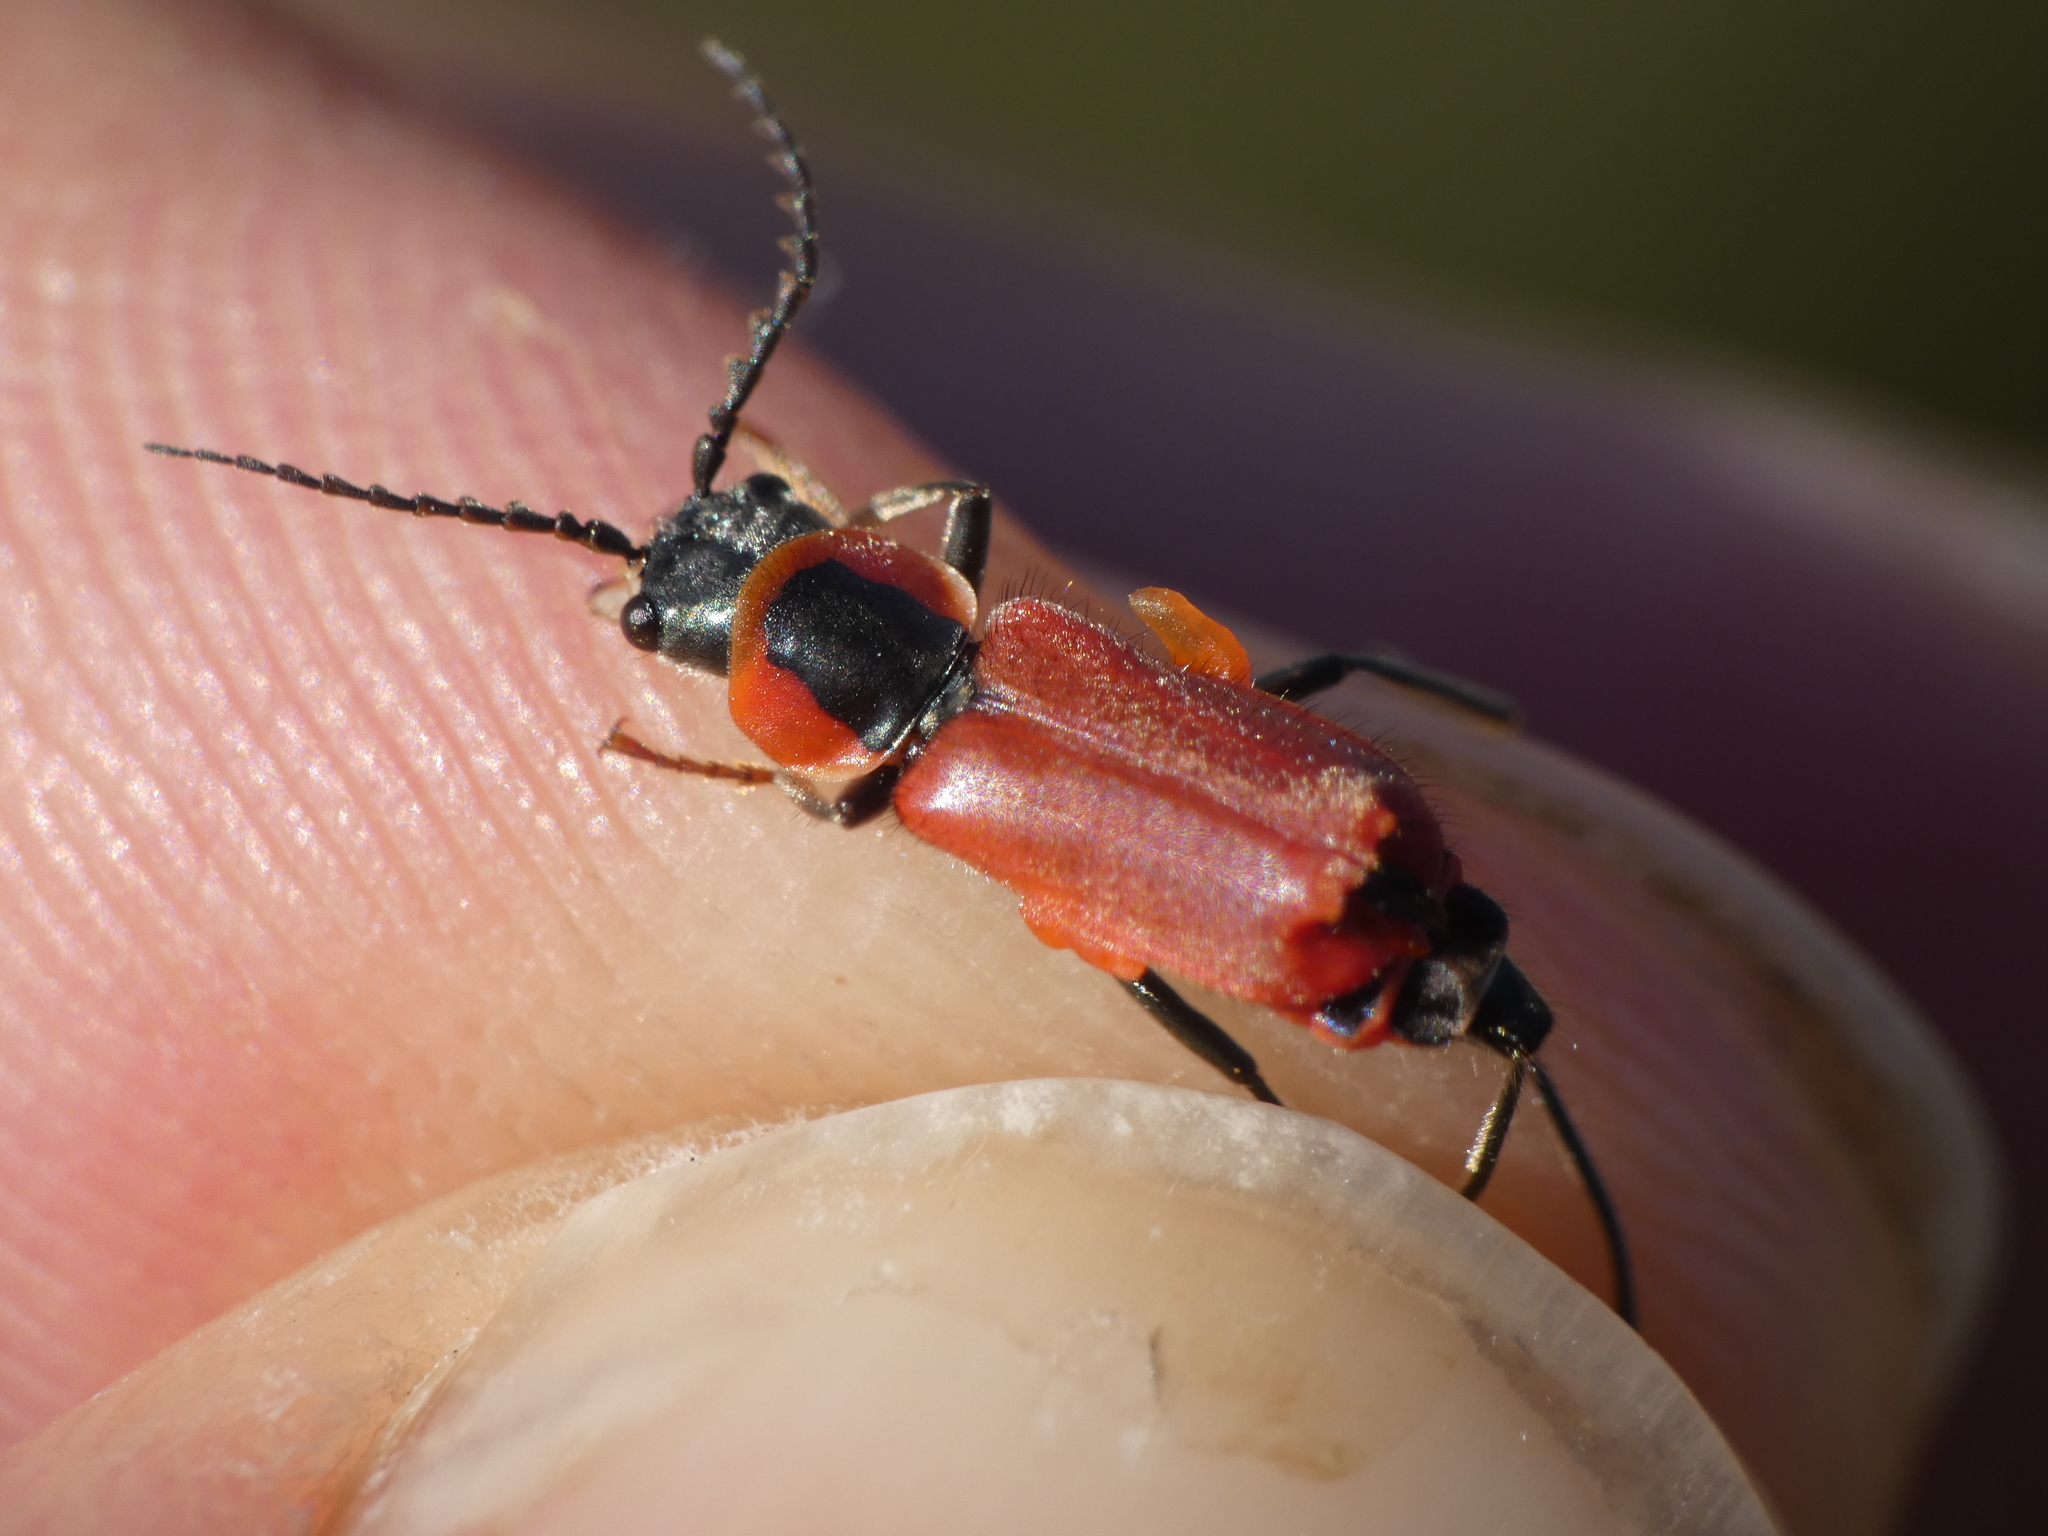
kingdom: Animalia
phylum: Arthropoda
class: Insecta
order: Coleoptera
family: Malachiidae
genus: Clanoptilus
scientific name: Clanoptilus rufus
